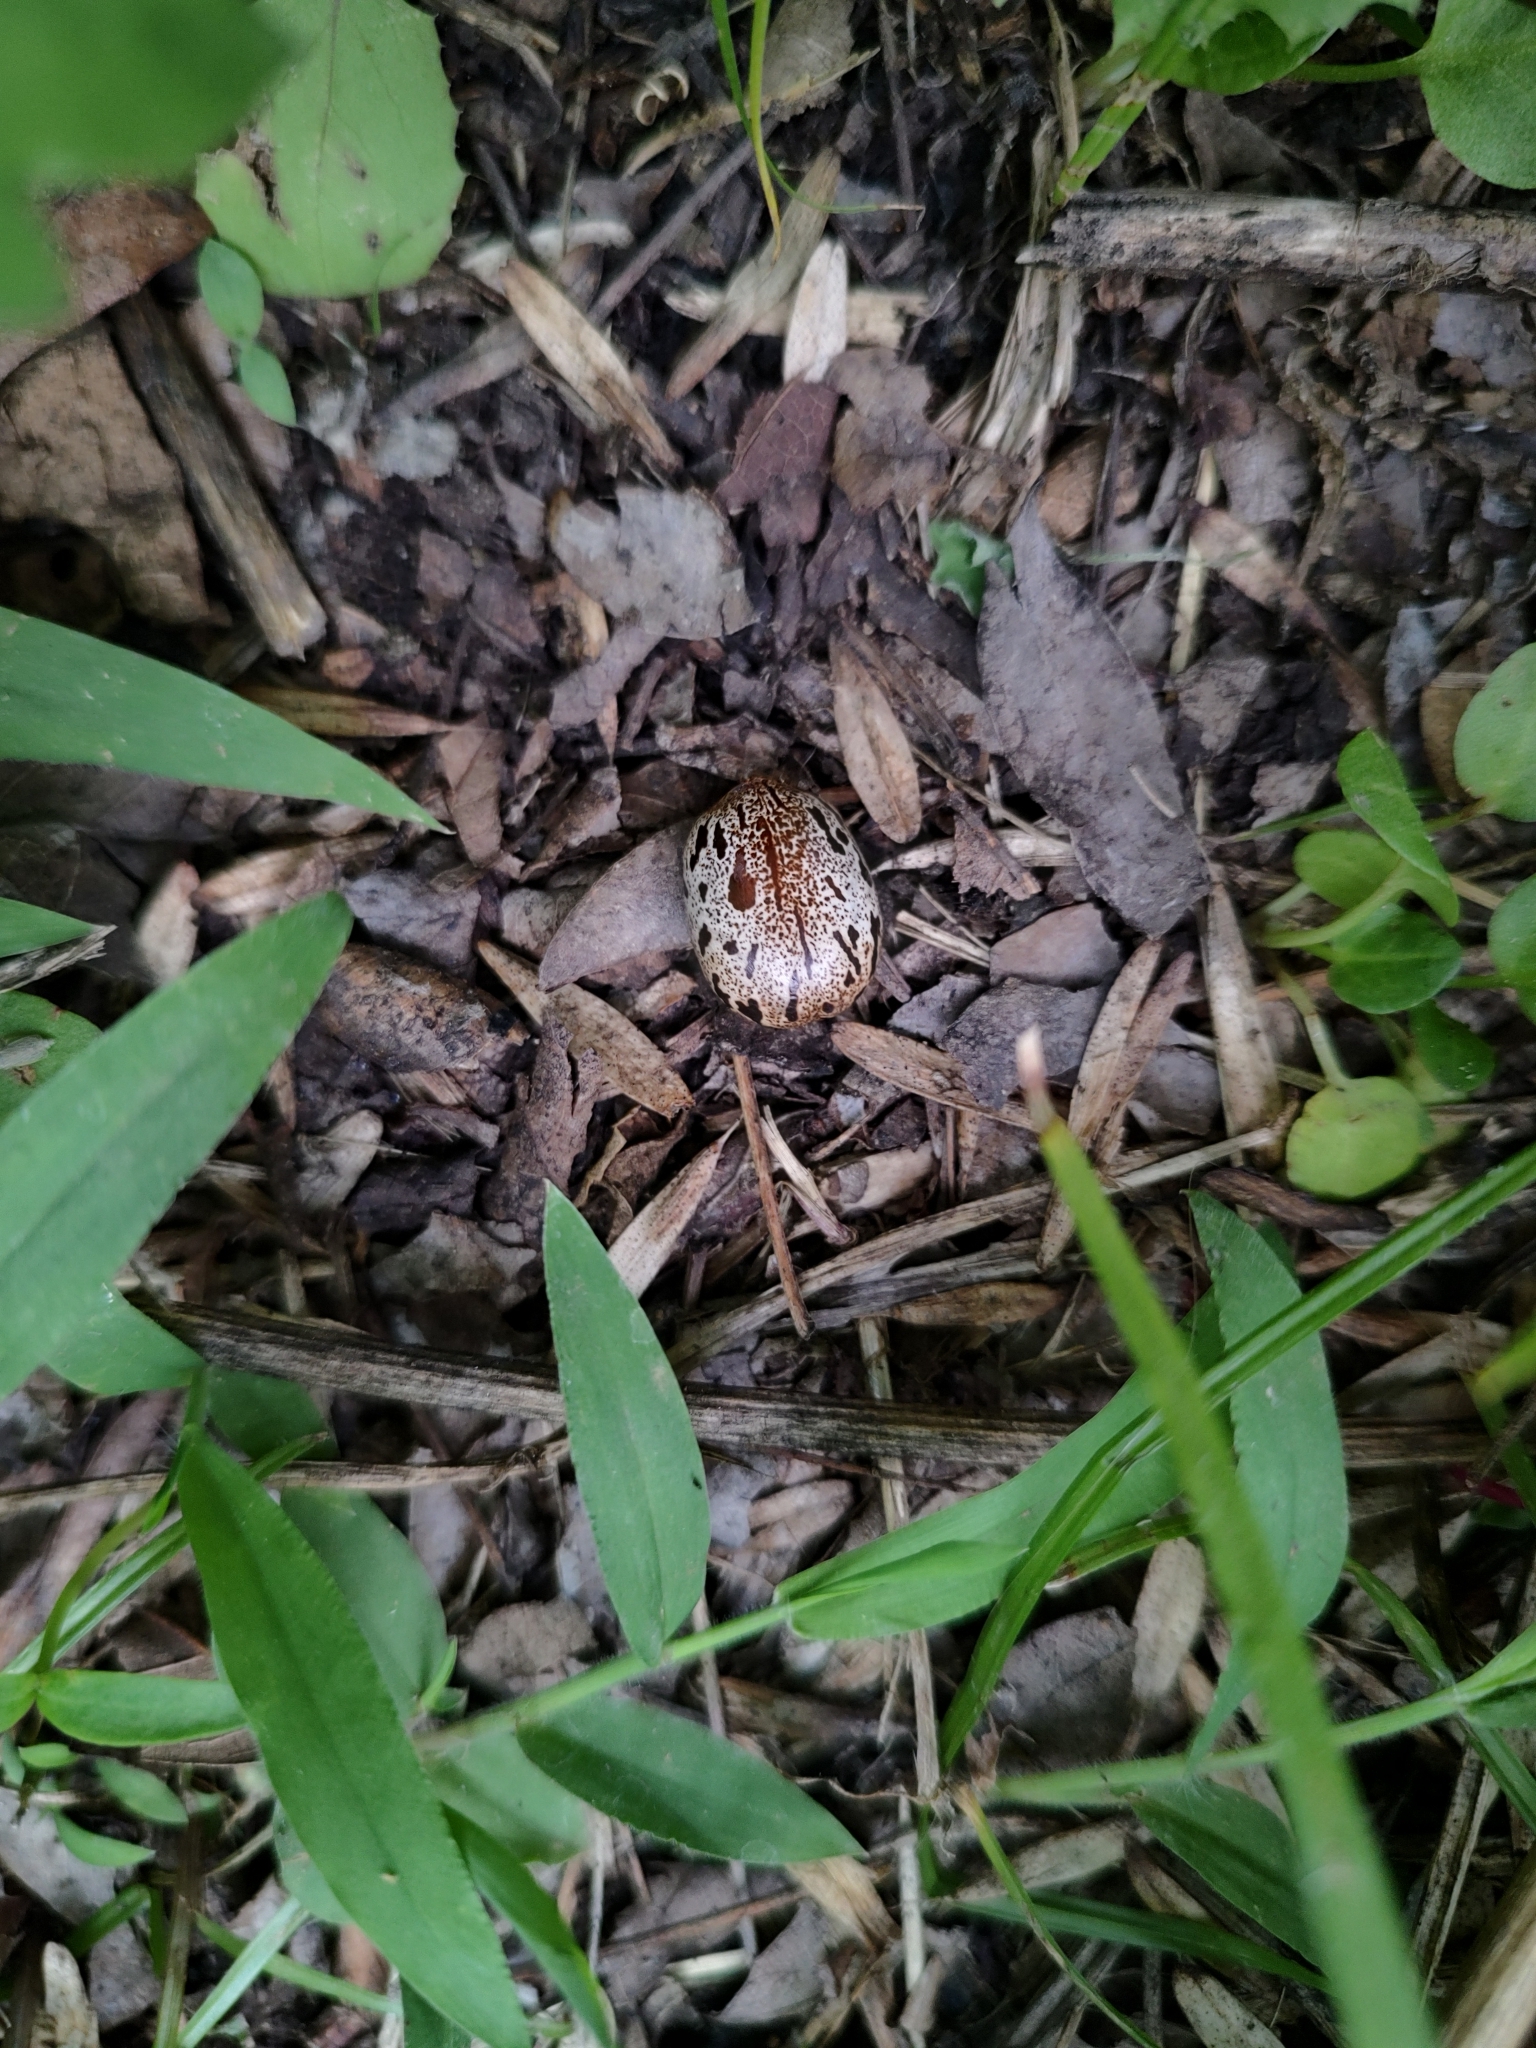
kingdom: Plantae
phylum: Tracheophyta
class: Magnoliopsida
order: Malpighiales
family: Euphorbiaceae
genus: Ricinus
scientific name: Ricinus communis
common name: Castor-oil-plant
